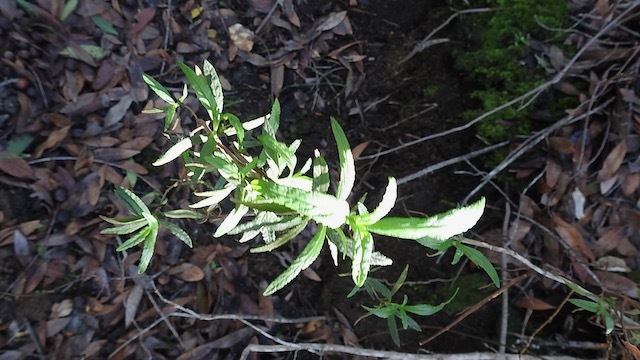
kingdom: Plantae
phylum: Tracheophyta
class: Magnoliopsida
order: Lamiales
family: Phrymaceae
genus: Diplacus
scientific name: Diplacus aurantiacus
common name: Bush monkey-flower
